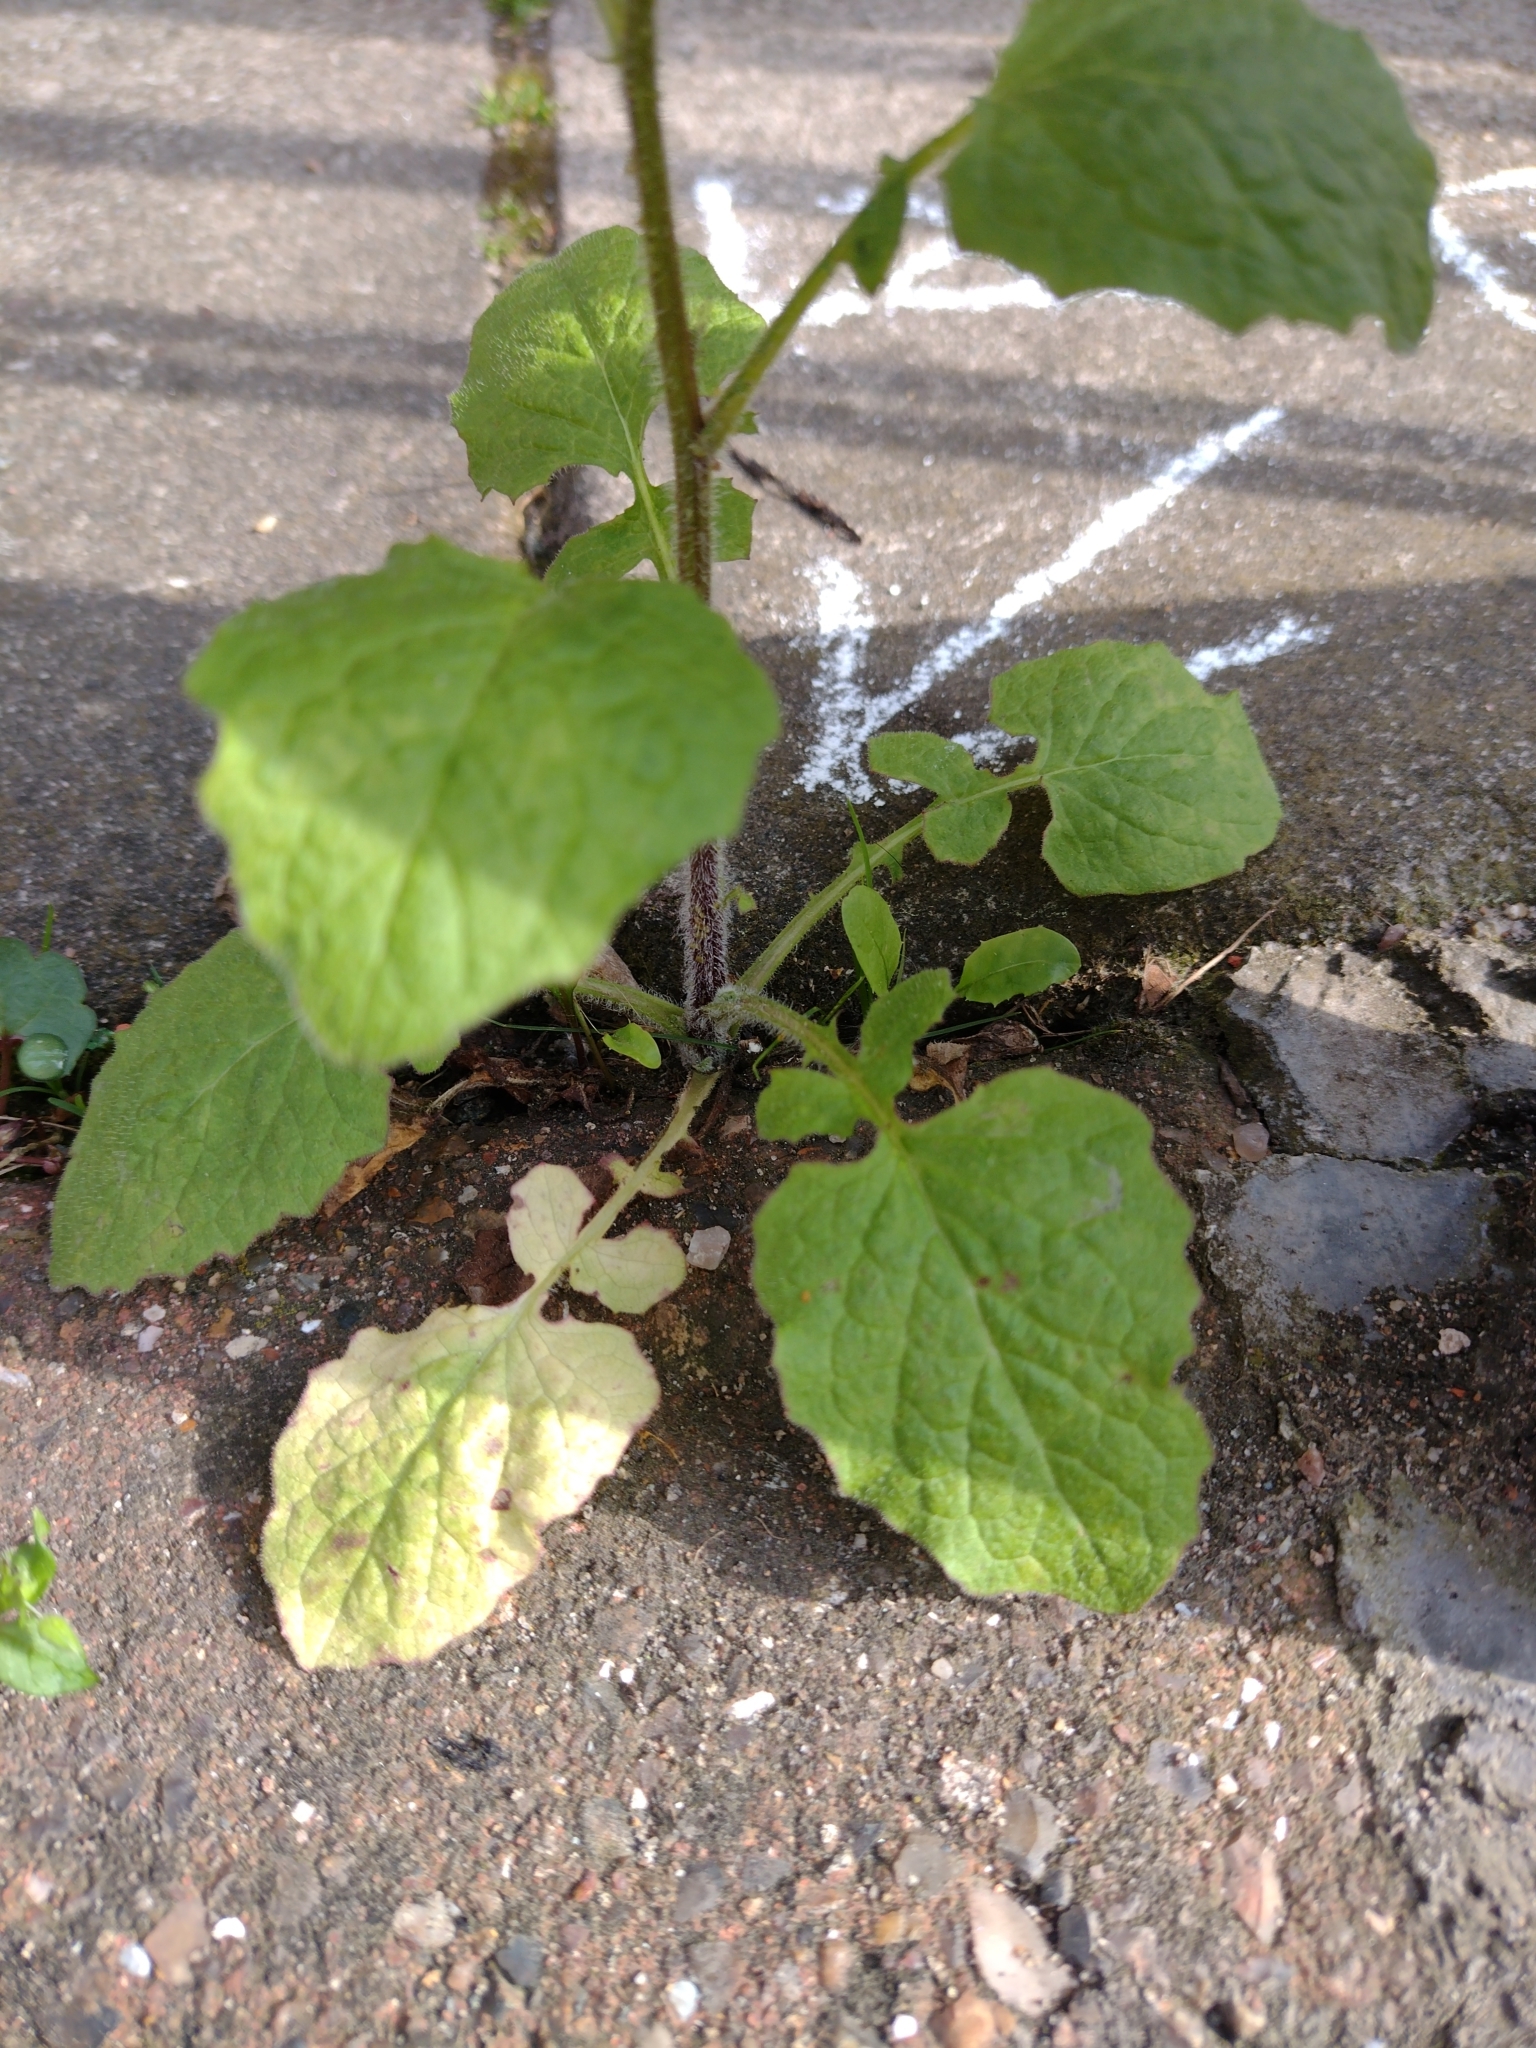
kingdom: Plantae
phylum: Tracheophyta
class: Magnoliopsida
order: Asterales
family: Asteraceae
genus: Lapsana
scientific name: Lapsana communis
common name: Nipplewort
